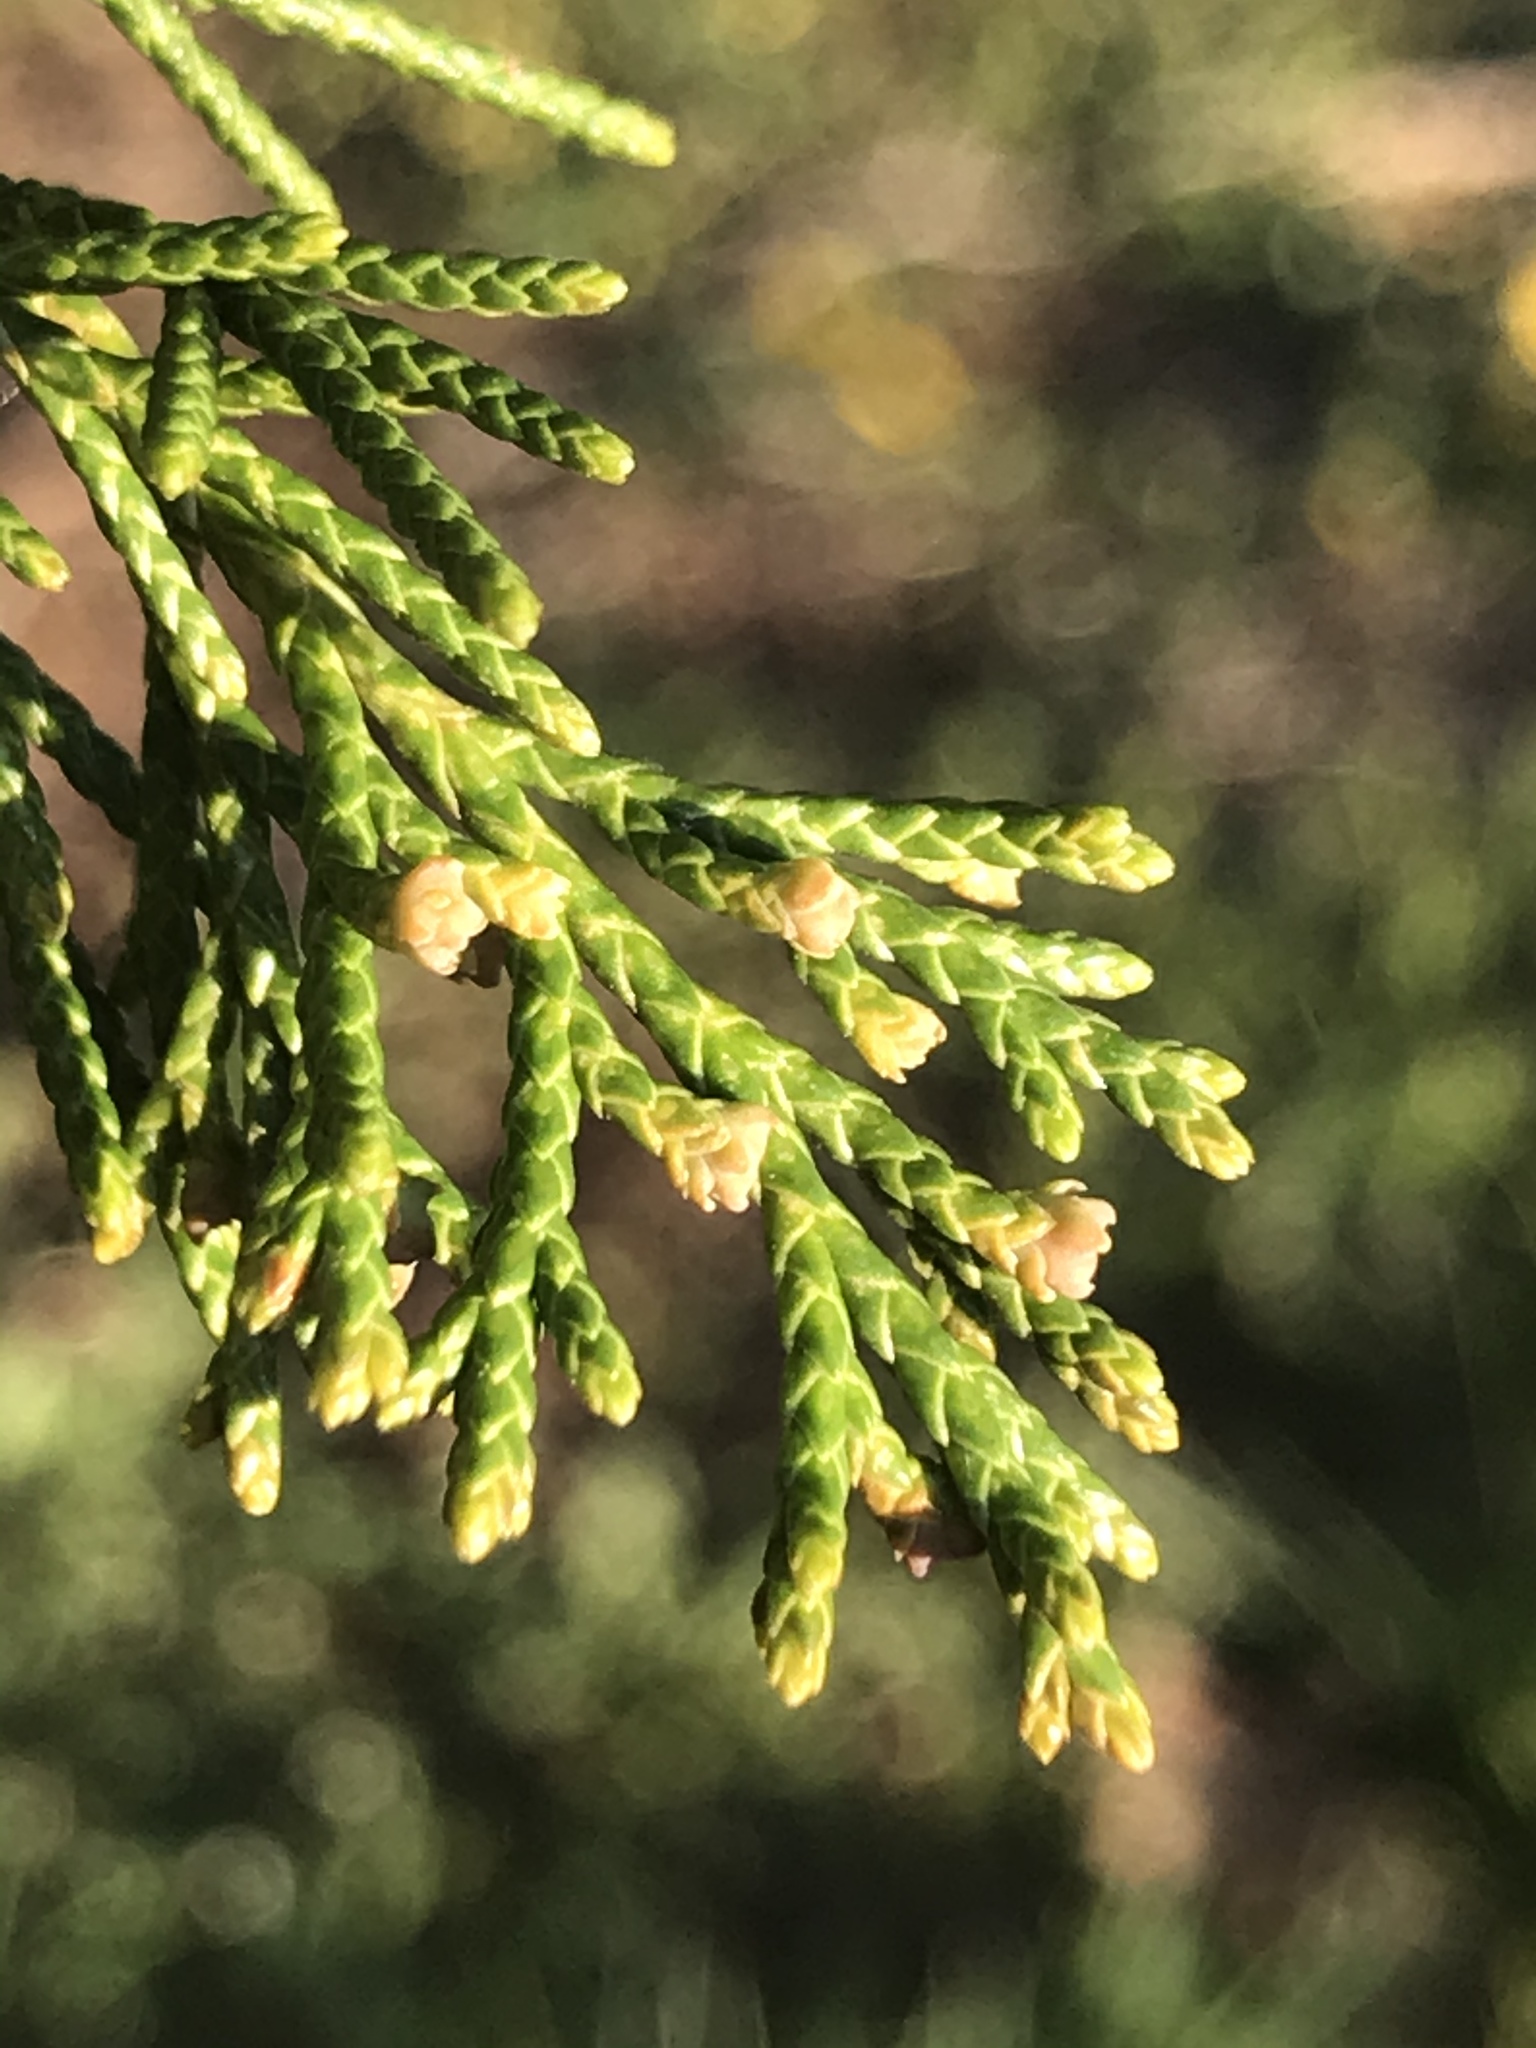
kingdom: Plantae
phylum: Tracheophyta
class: Pinopsida
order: Pinales
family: Cupressaceae
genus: Juniperus
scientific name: Juniperus virginiana
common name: Red juniper
